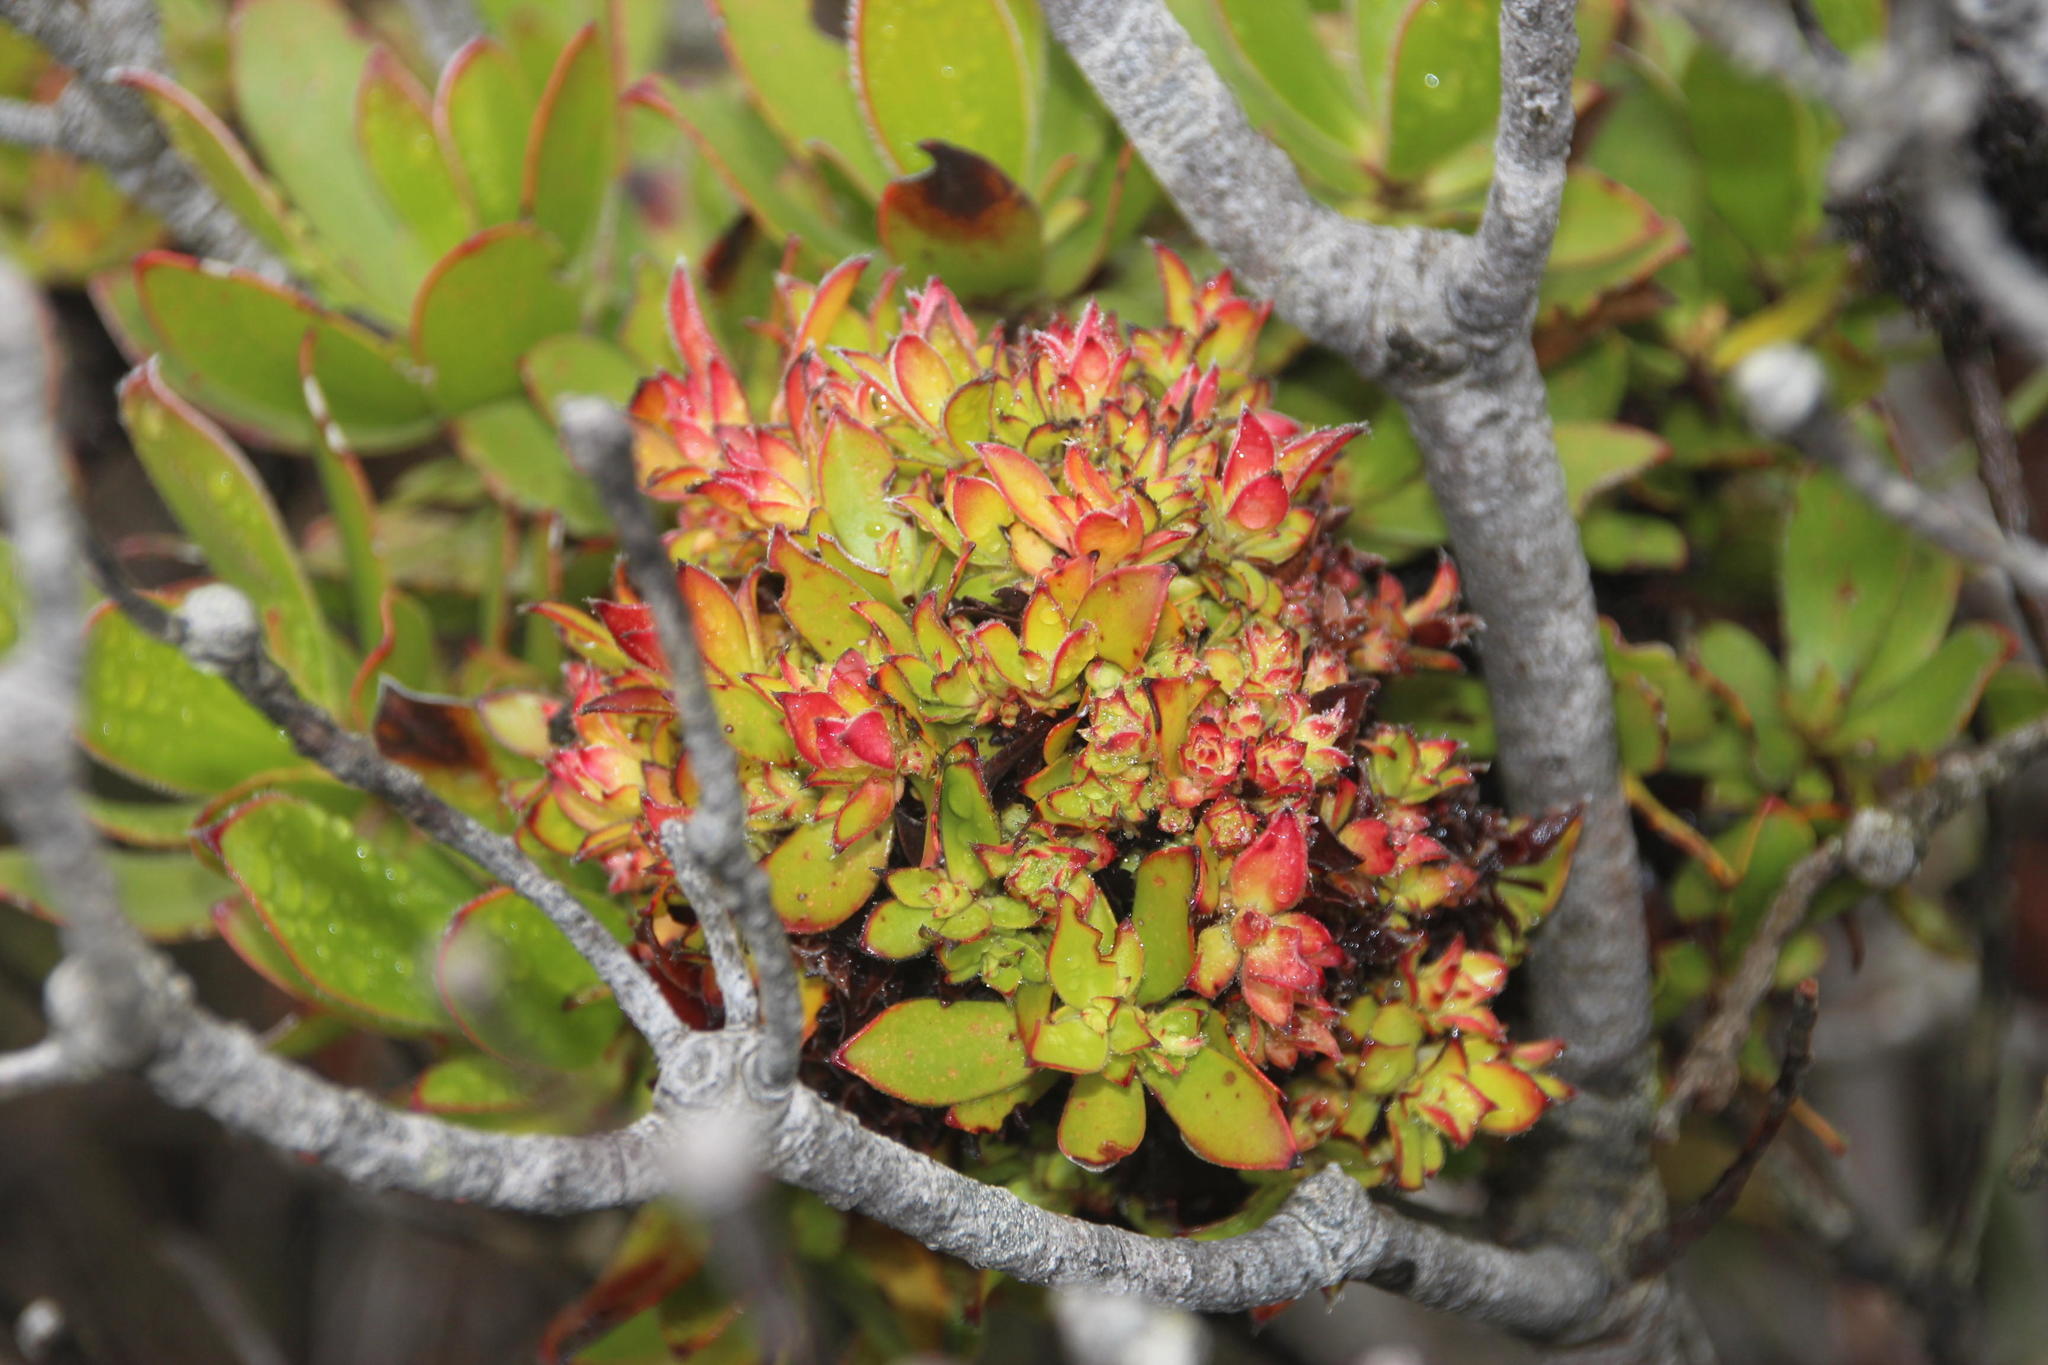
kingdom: Bacteria
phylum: Firmicutes
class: Bacilli
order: Acholeplasmatales
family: Acholeplasmataceae
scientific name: Acholeplasmataceae
